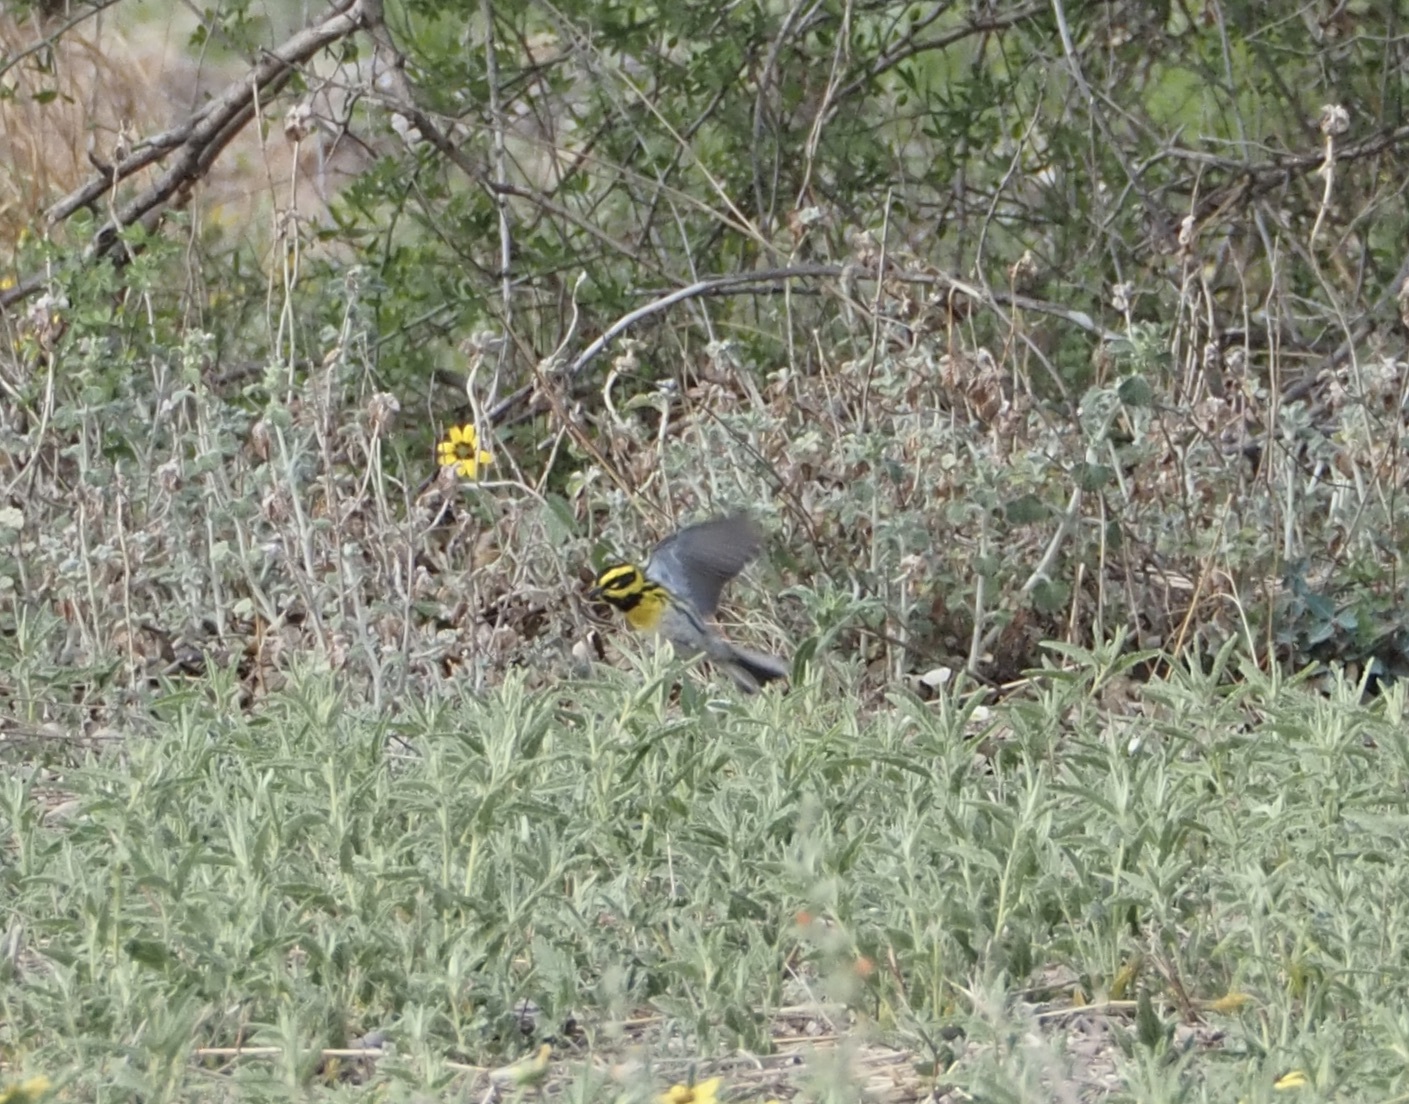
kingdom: Animalia
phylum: Chordata
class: Aves
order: Passeriformes
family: Parulidae
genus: Setophaga
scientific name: Setophaga townsendi
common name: Townsend's warbler
